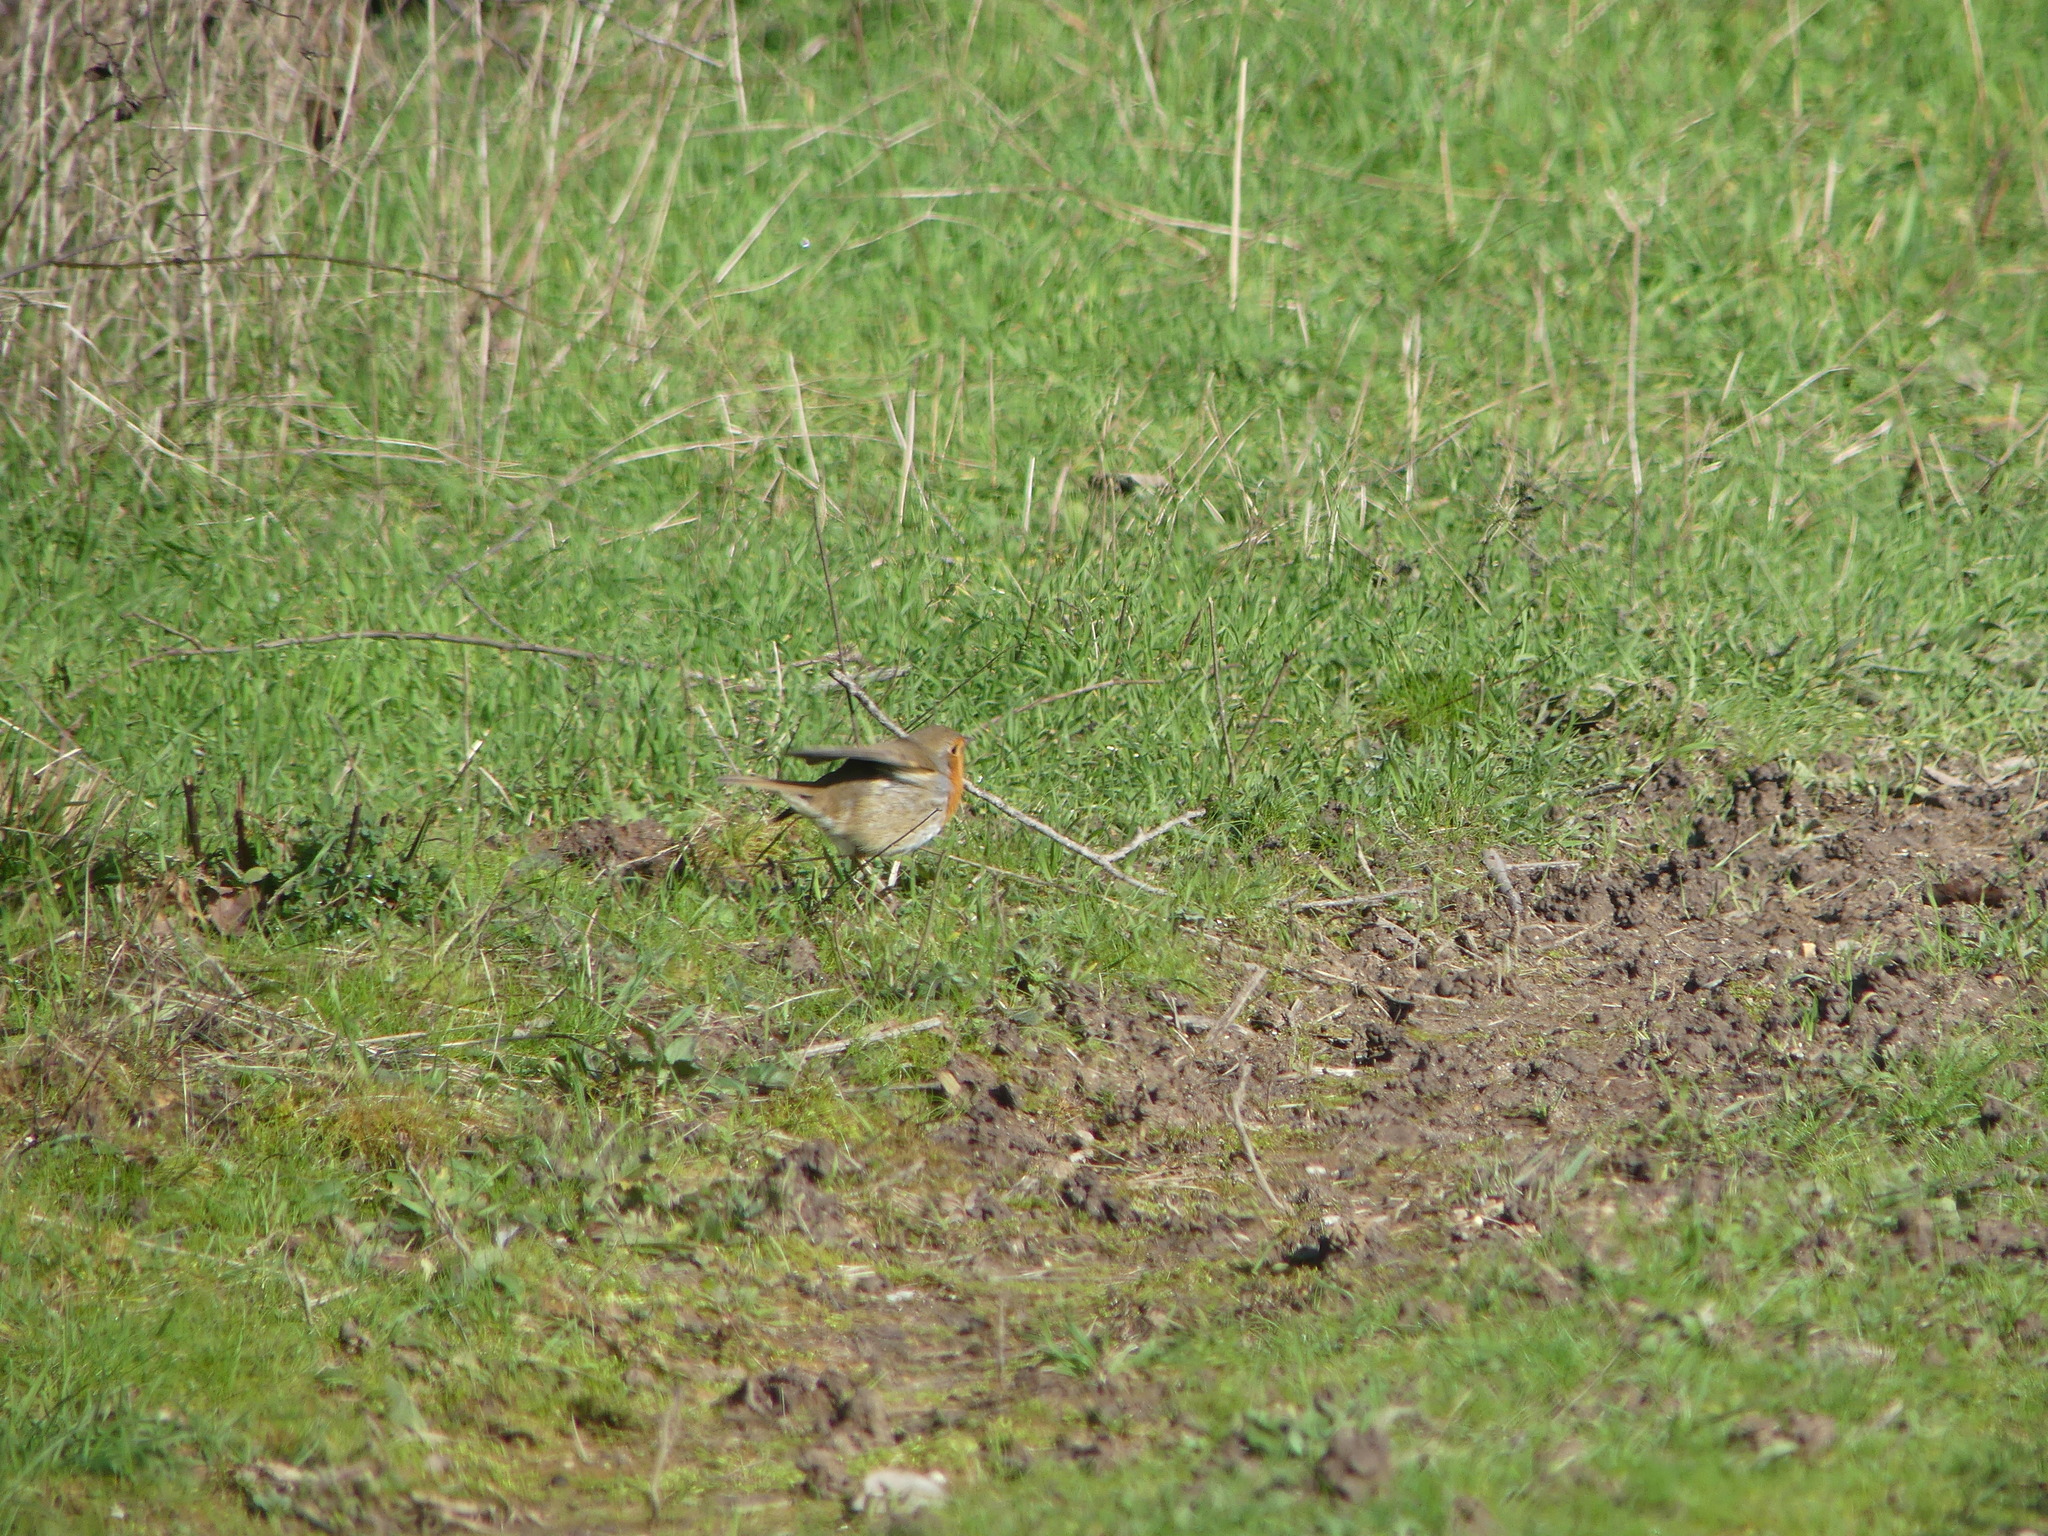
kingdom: Animalia
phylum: Chordata
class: Aves
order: Passeriformes
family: Muscicapidae
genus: Erithacus
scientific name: Erithacus rubecula
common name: European robin
